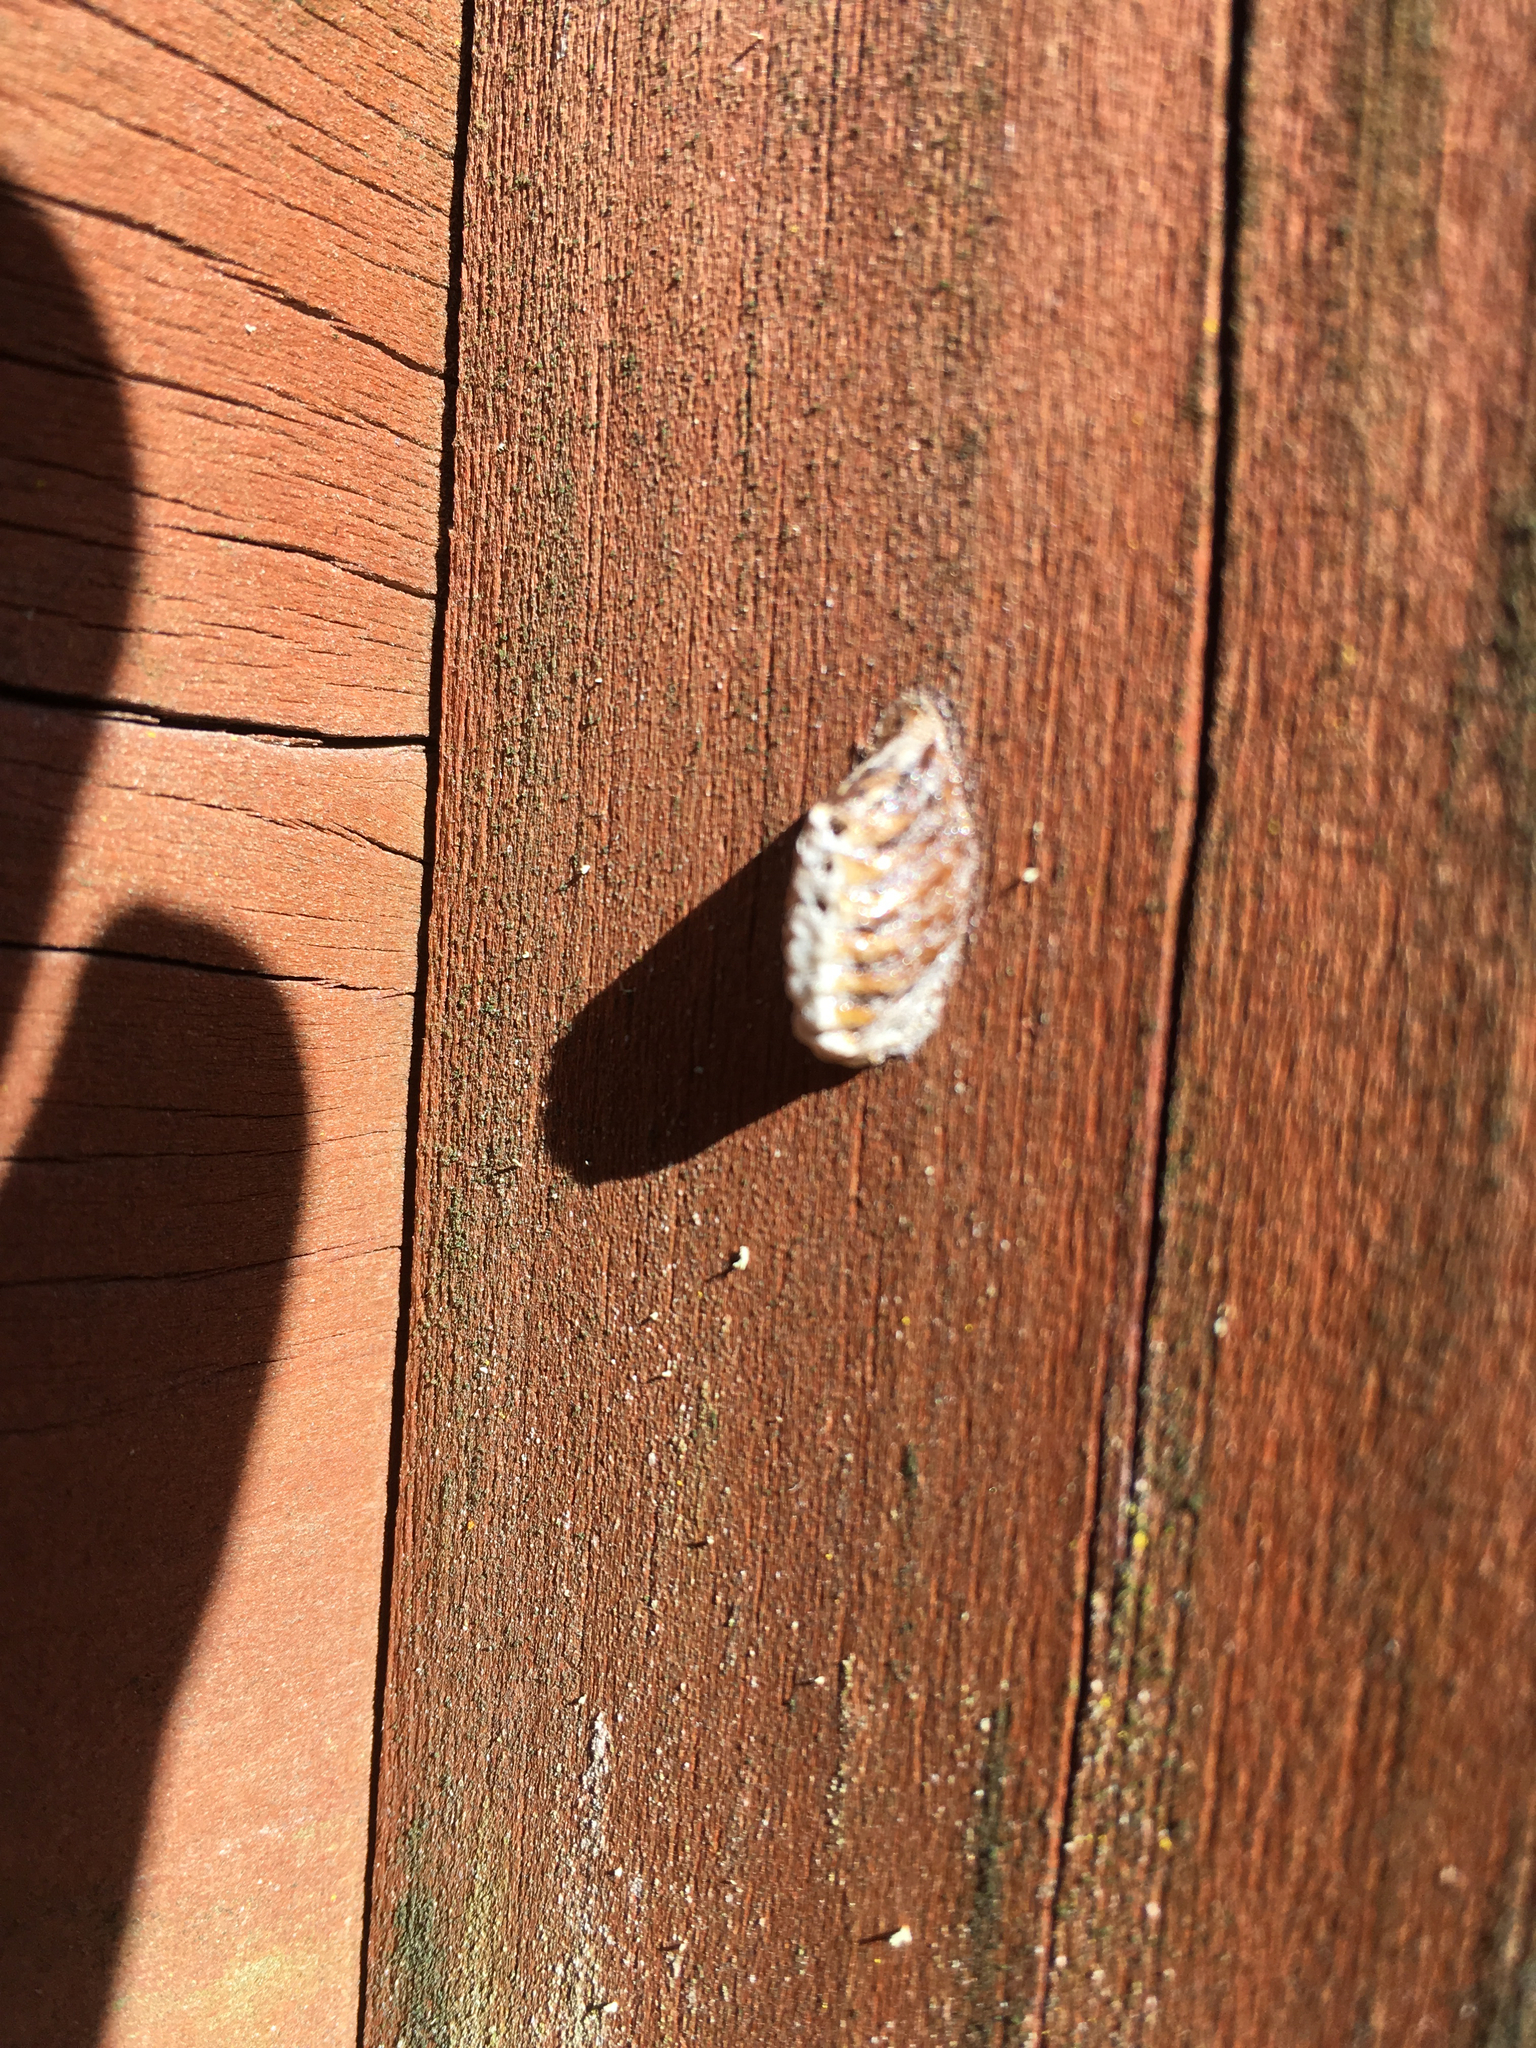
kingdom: Animalia
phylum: Arthropoda
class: Insecta
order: Mantodea
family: Mantidae
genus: Orthodera
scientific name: Orthodera novaezealandiae
